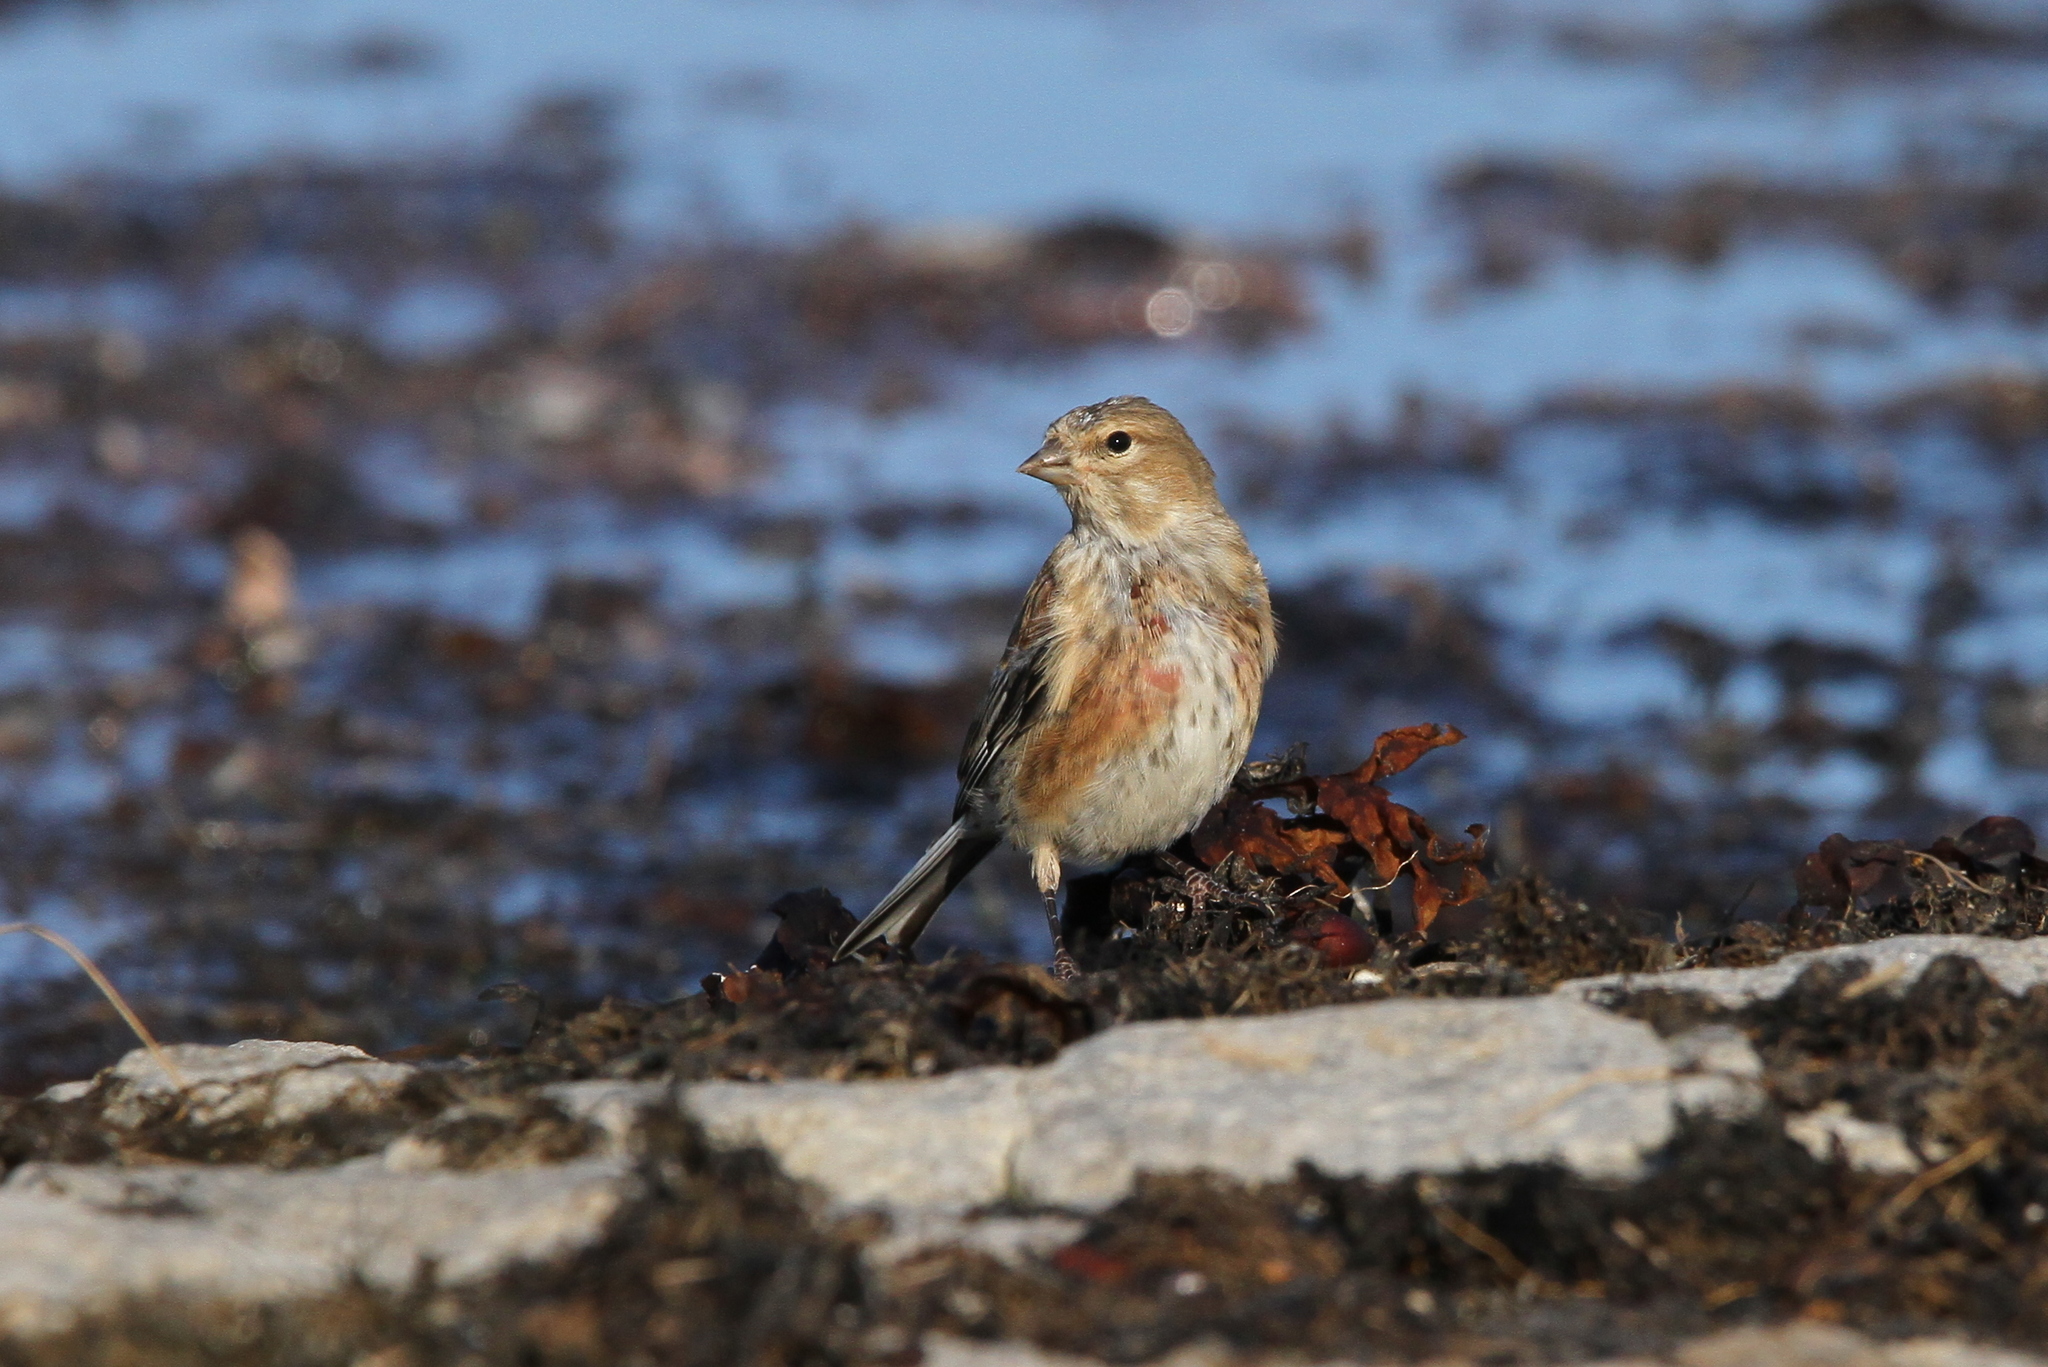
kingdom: Animalia
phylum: Chordata
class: Aves
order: Passeriformes
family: Fringillidae
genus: Linaria
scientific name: Linaria cannabina
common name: Common linnet
